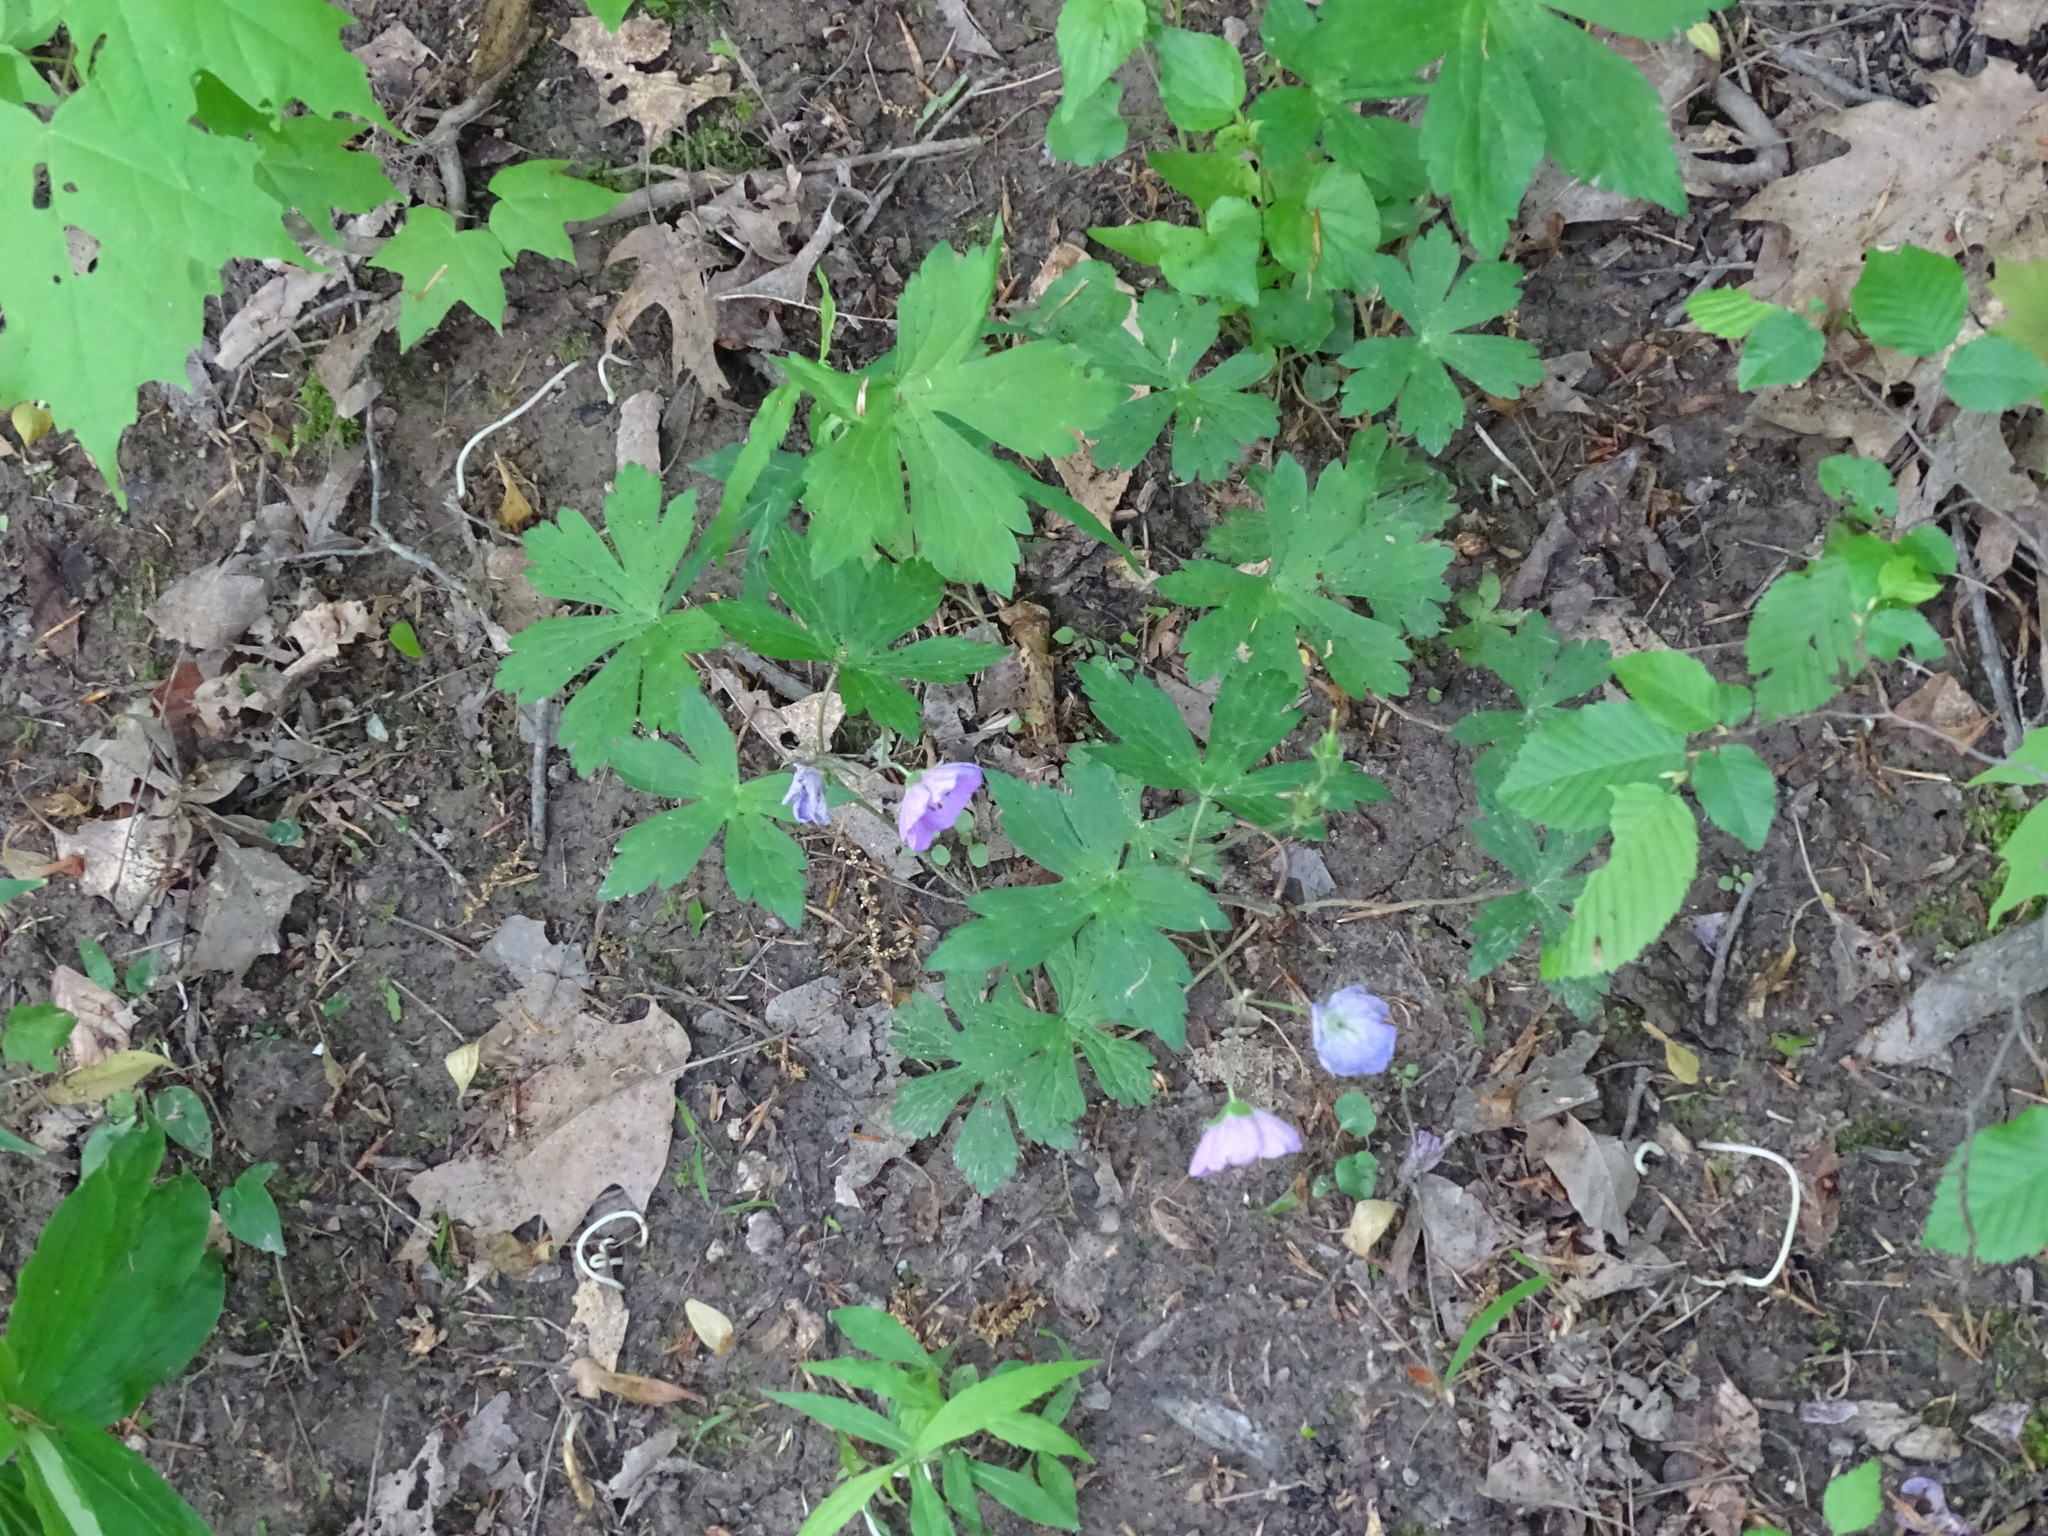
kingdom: Plantae
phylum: Tracheophyta
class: Magnoliopsida
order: Geraniales
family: Geraniaceae
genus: Geranium
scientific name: Geranium maculatum
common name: Spotted geranium
